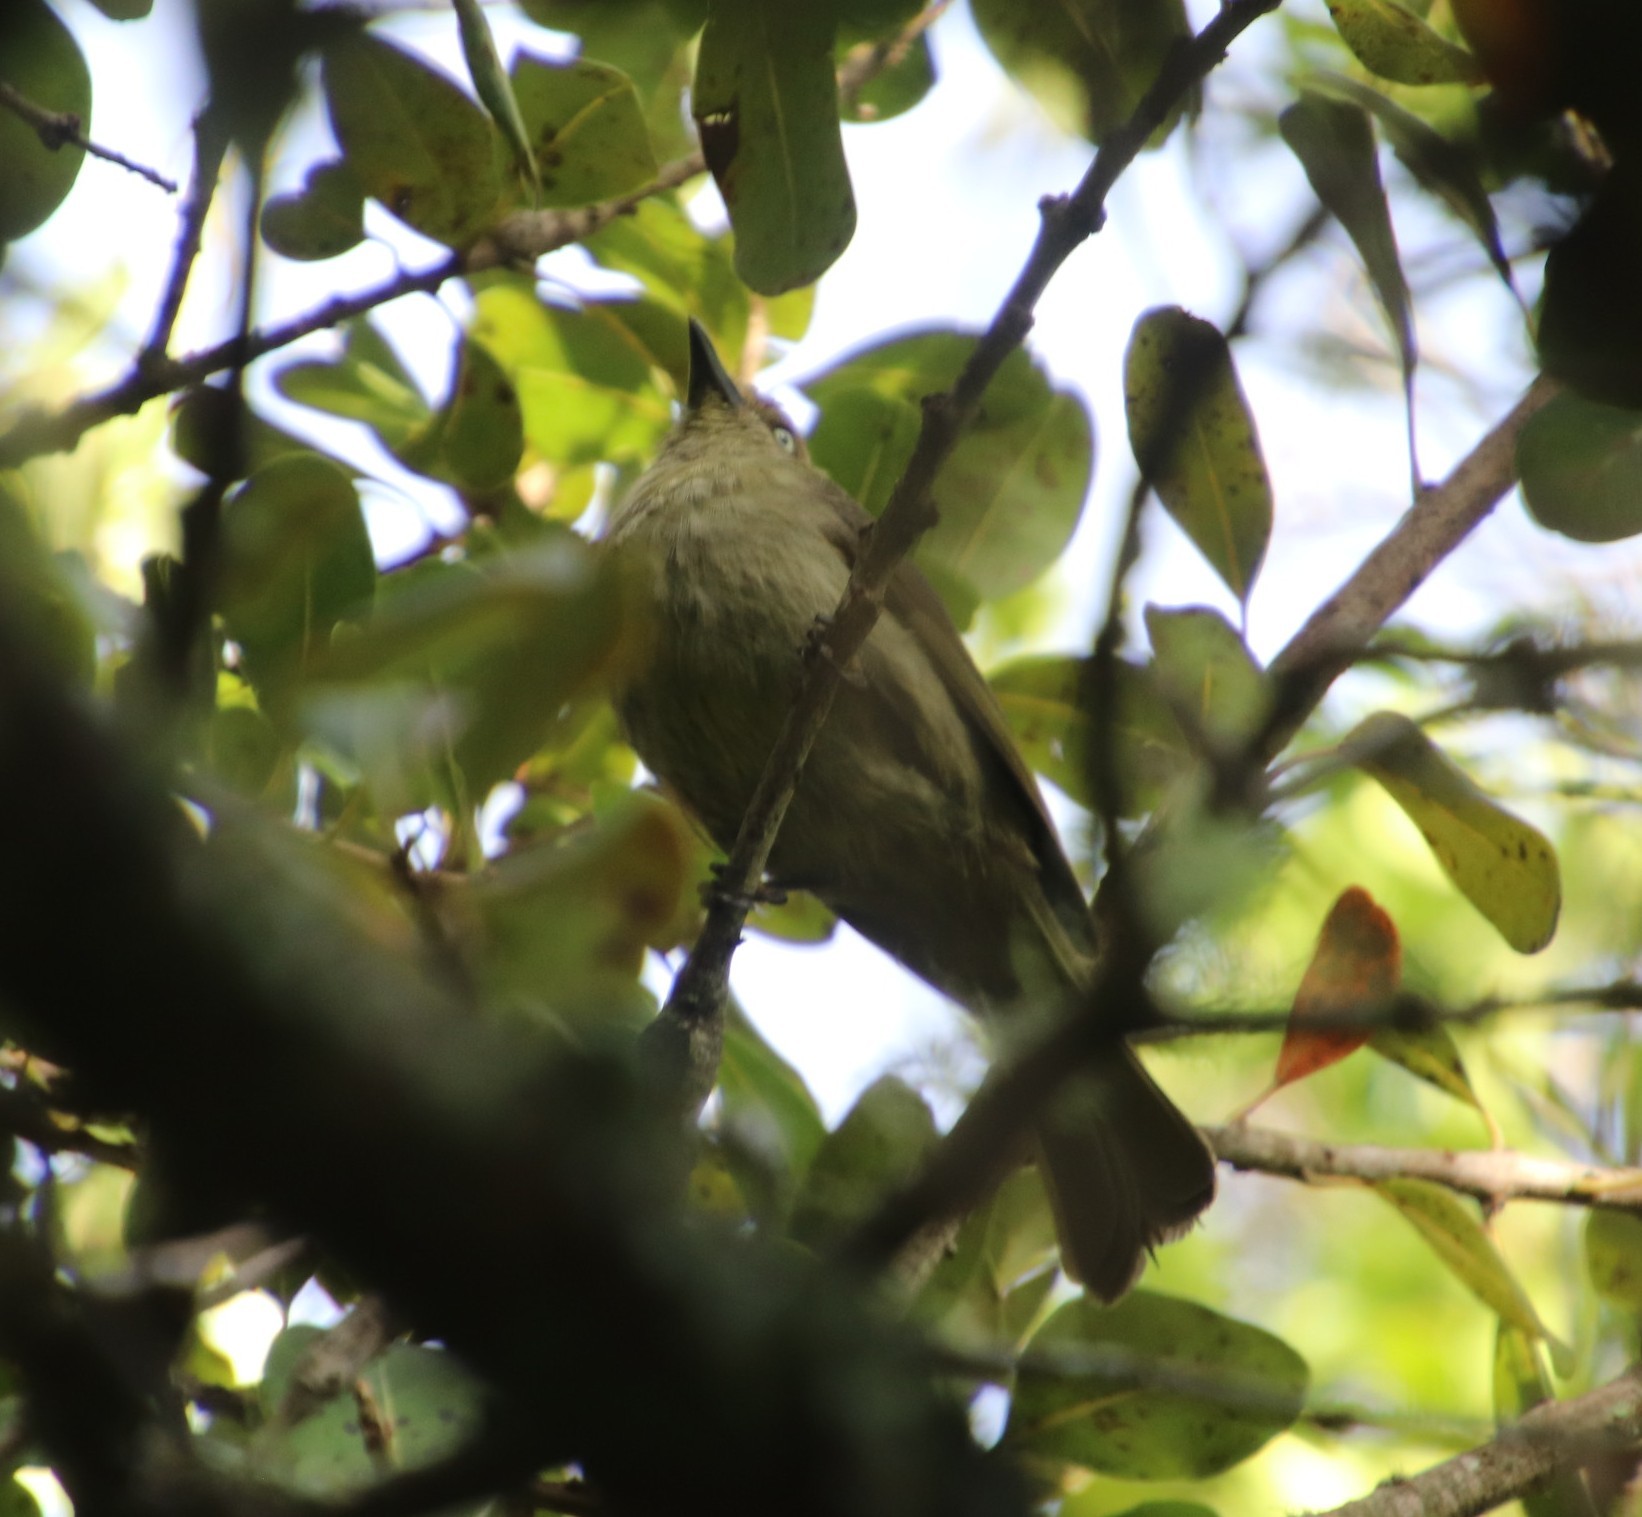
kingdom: Animalia
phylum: Chordata
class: Aves
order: Passeriformes
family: Pycnonotidae
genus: Andropadus
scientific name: Andropadus importunus
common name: Sombre greenbul
